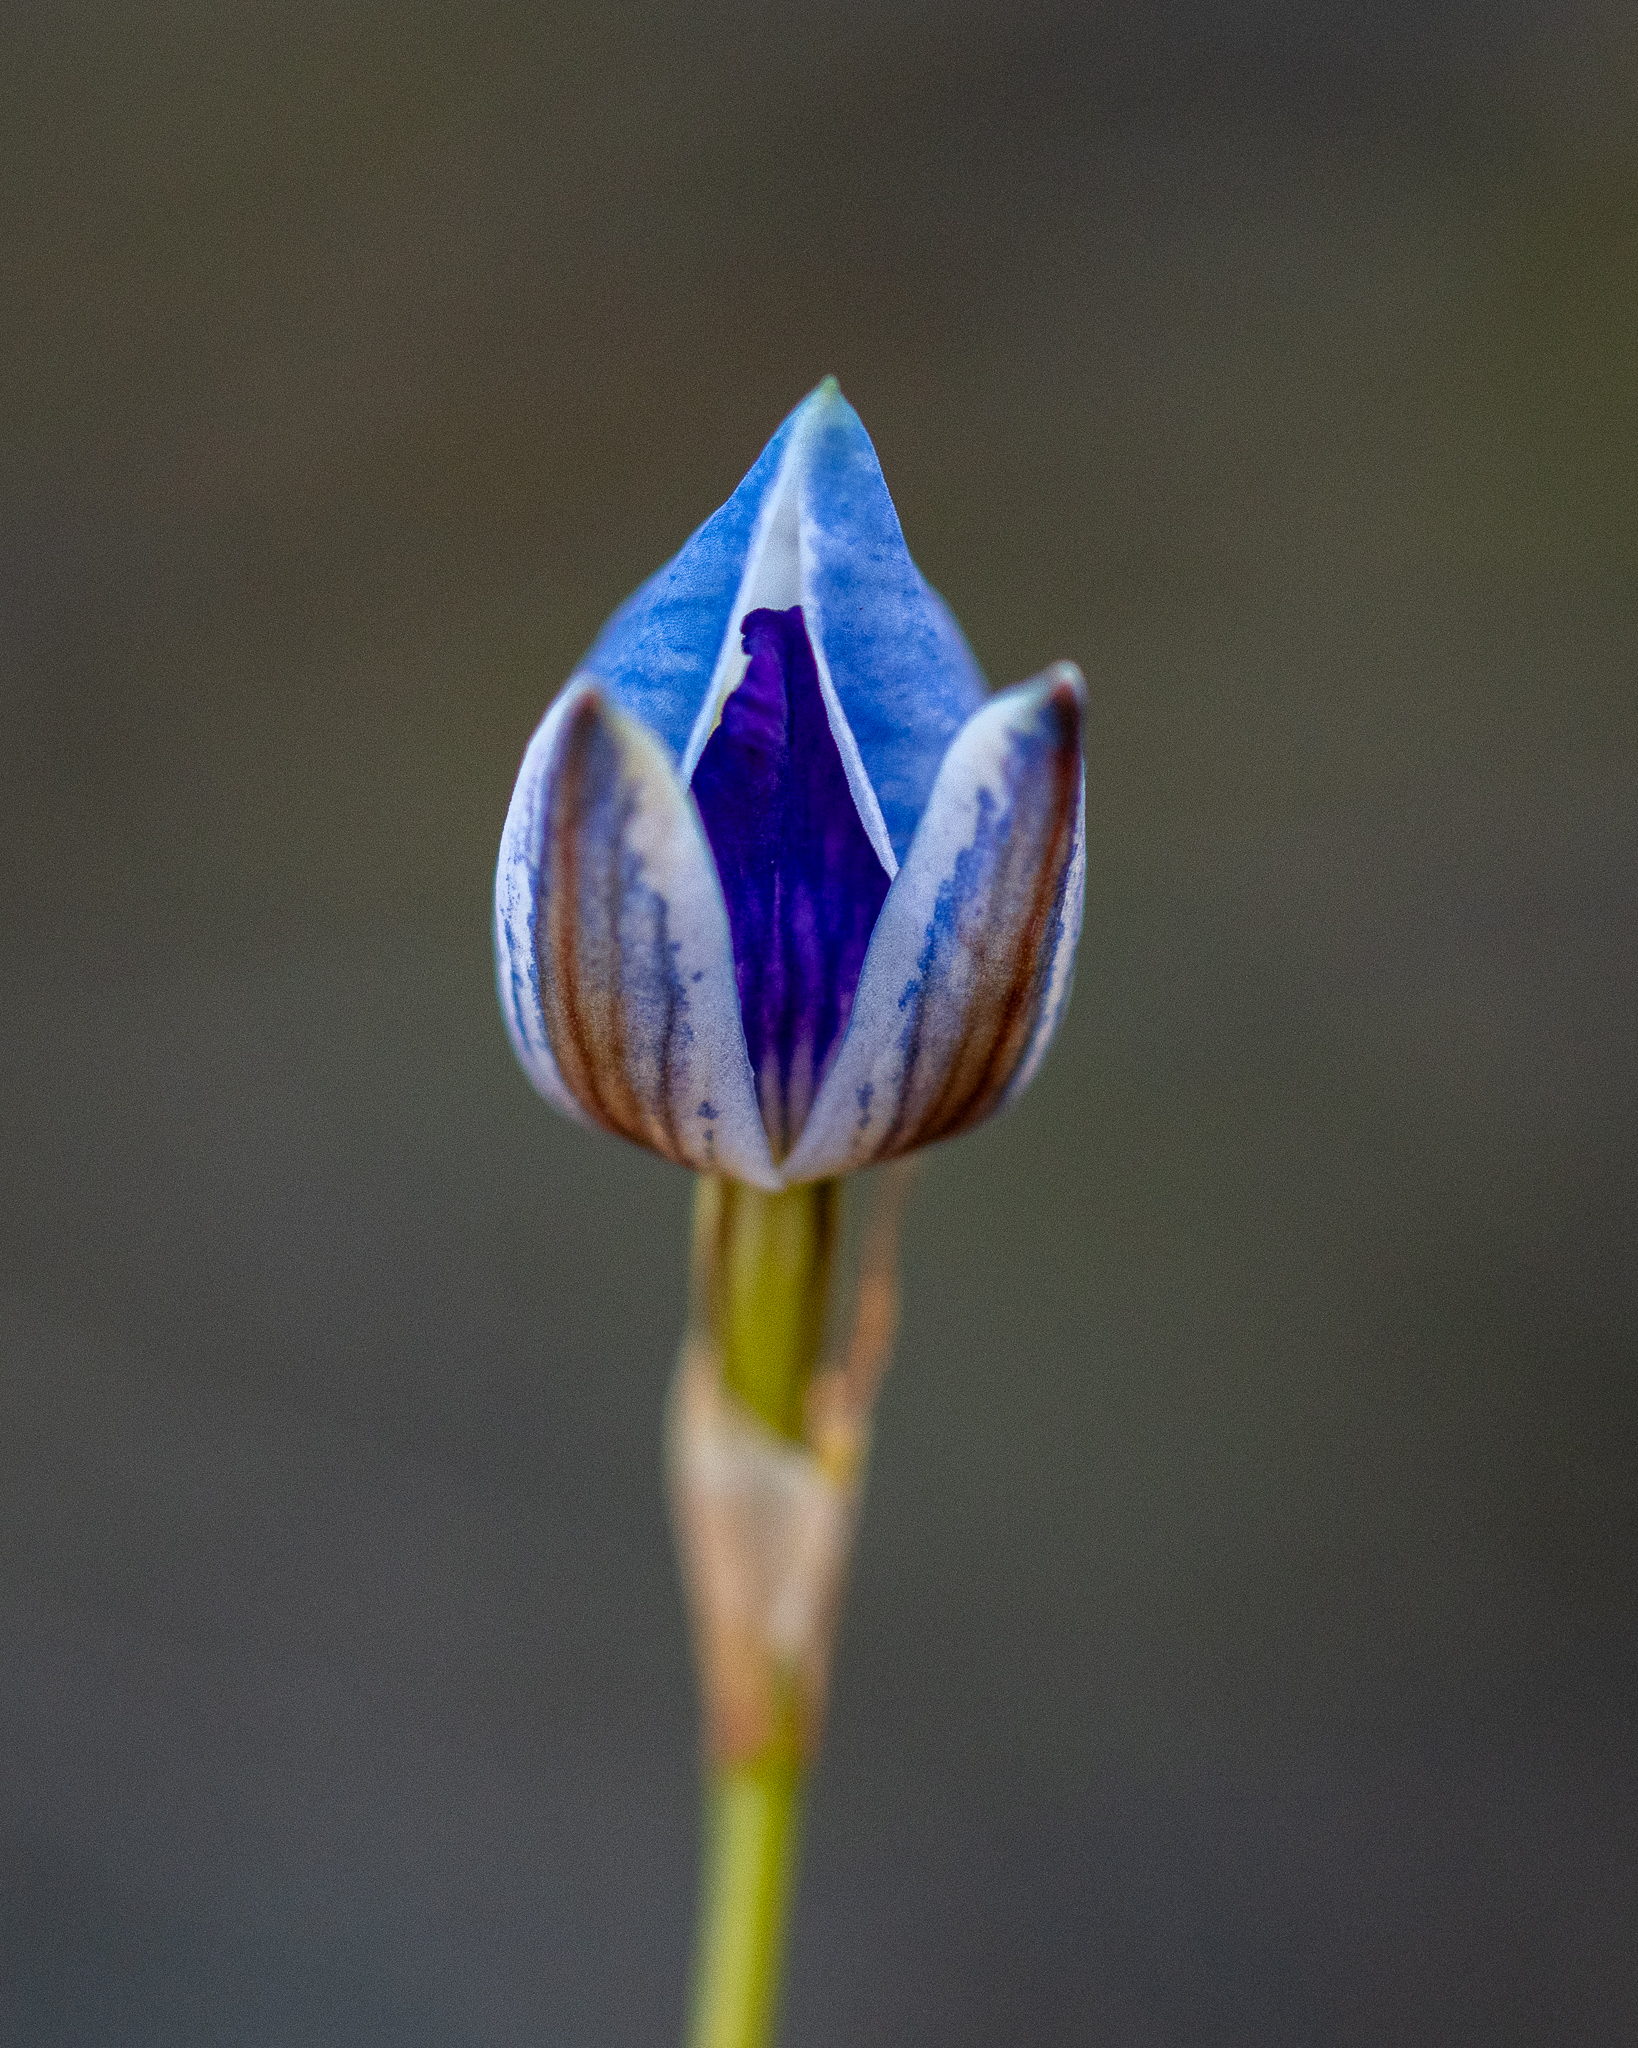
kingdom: Plantae
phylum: Tracheophyta
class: Liliopsida
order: Asparagales
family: Orchidaceae
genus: Disa
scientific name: Disa purpurascens
